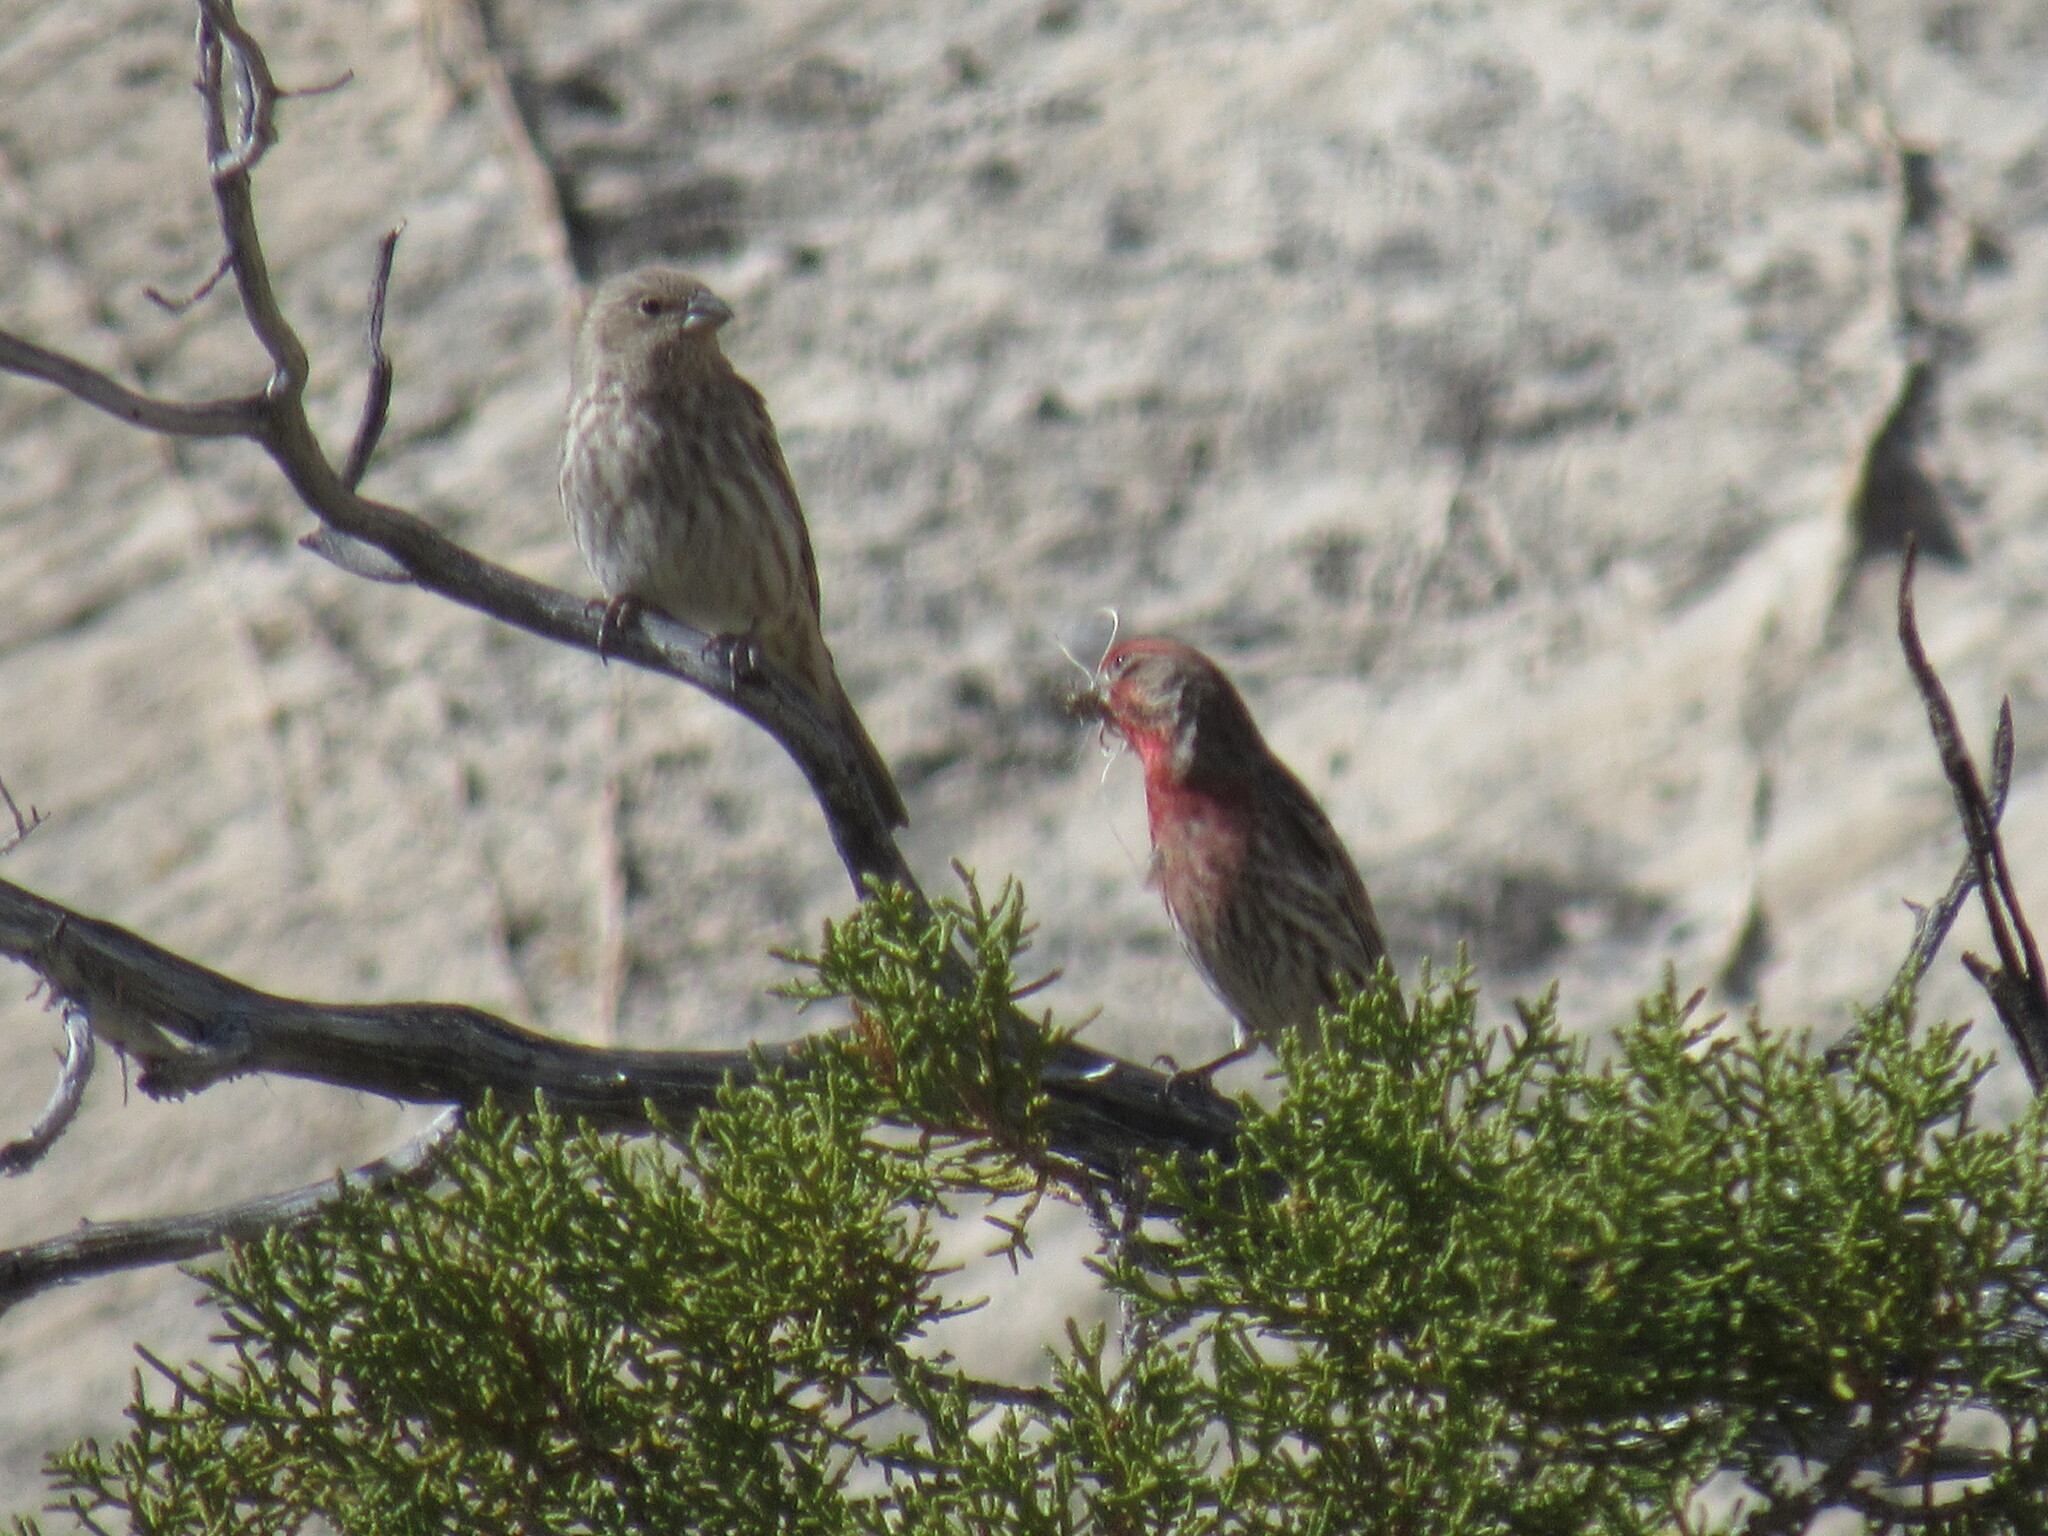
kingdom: Animalia
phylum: Chordata
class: Aves
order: Passeriformes
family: Fringillidae
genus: Haemorhous
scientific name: Haemorhous mexicanus
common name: House finch
